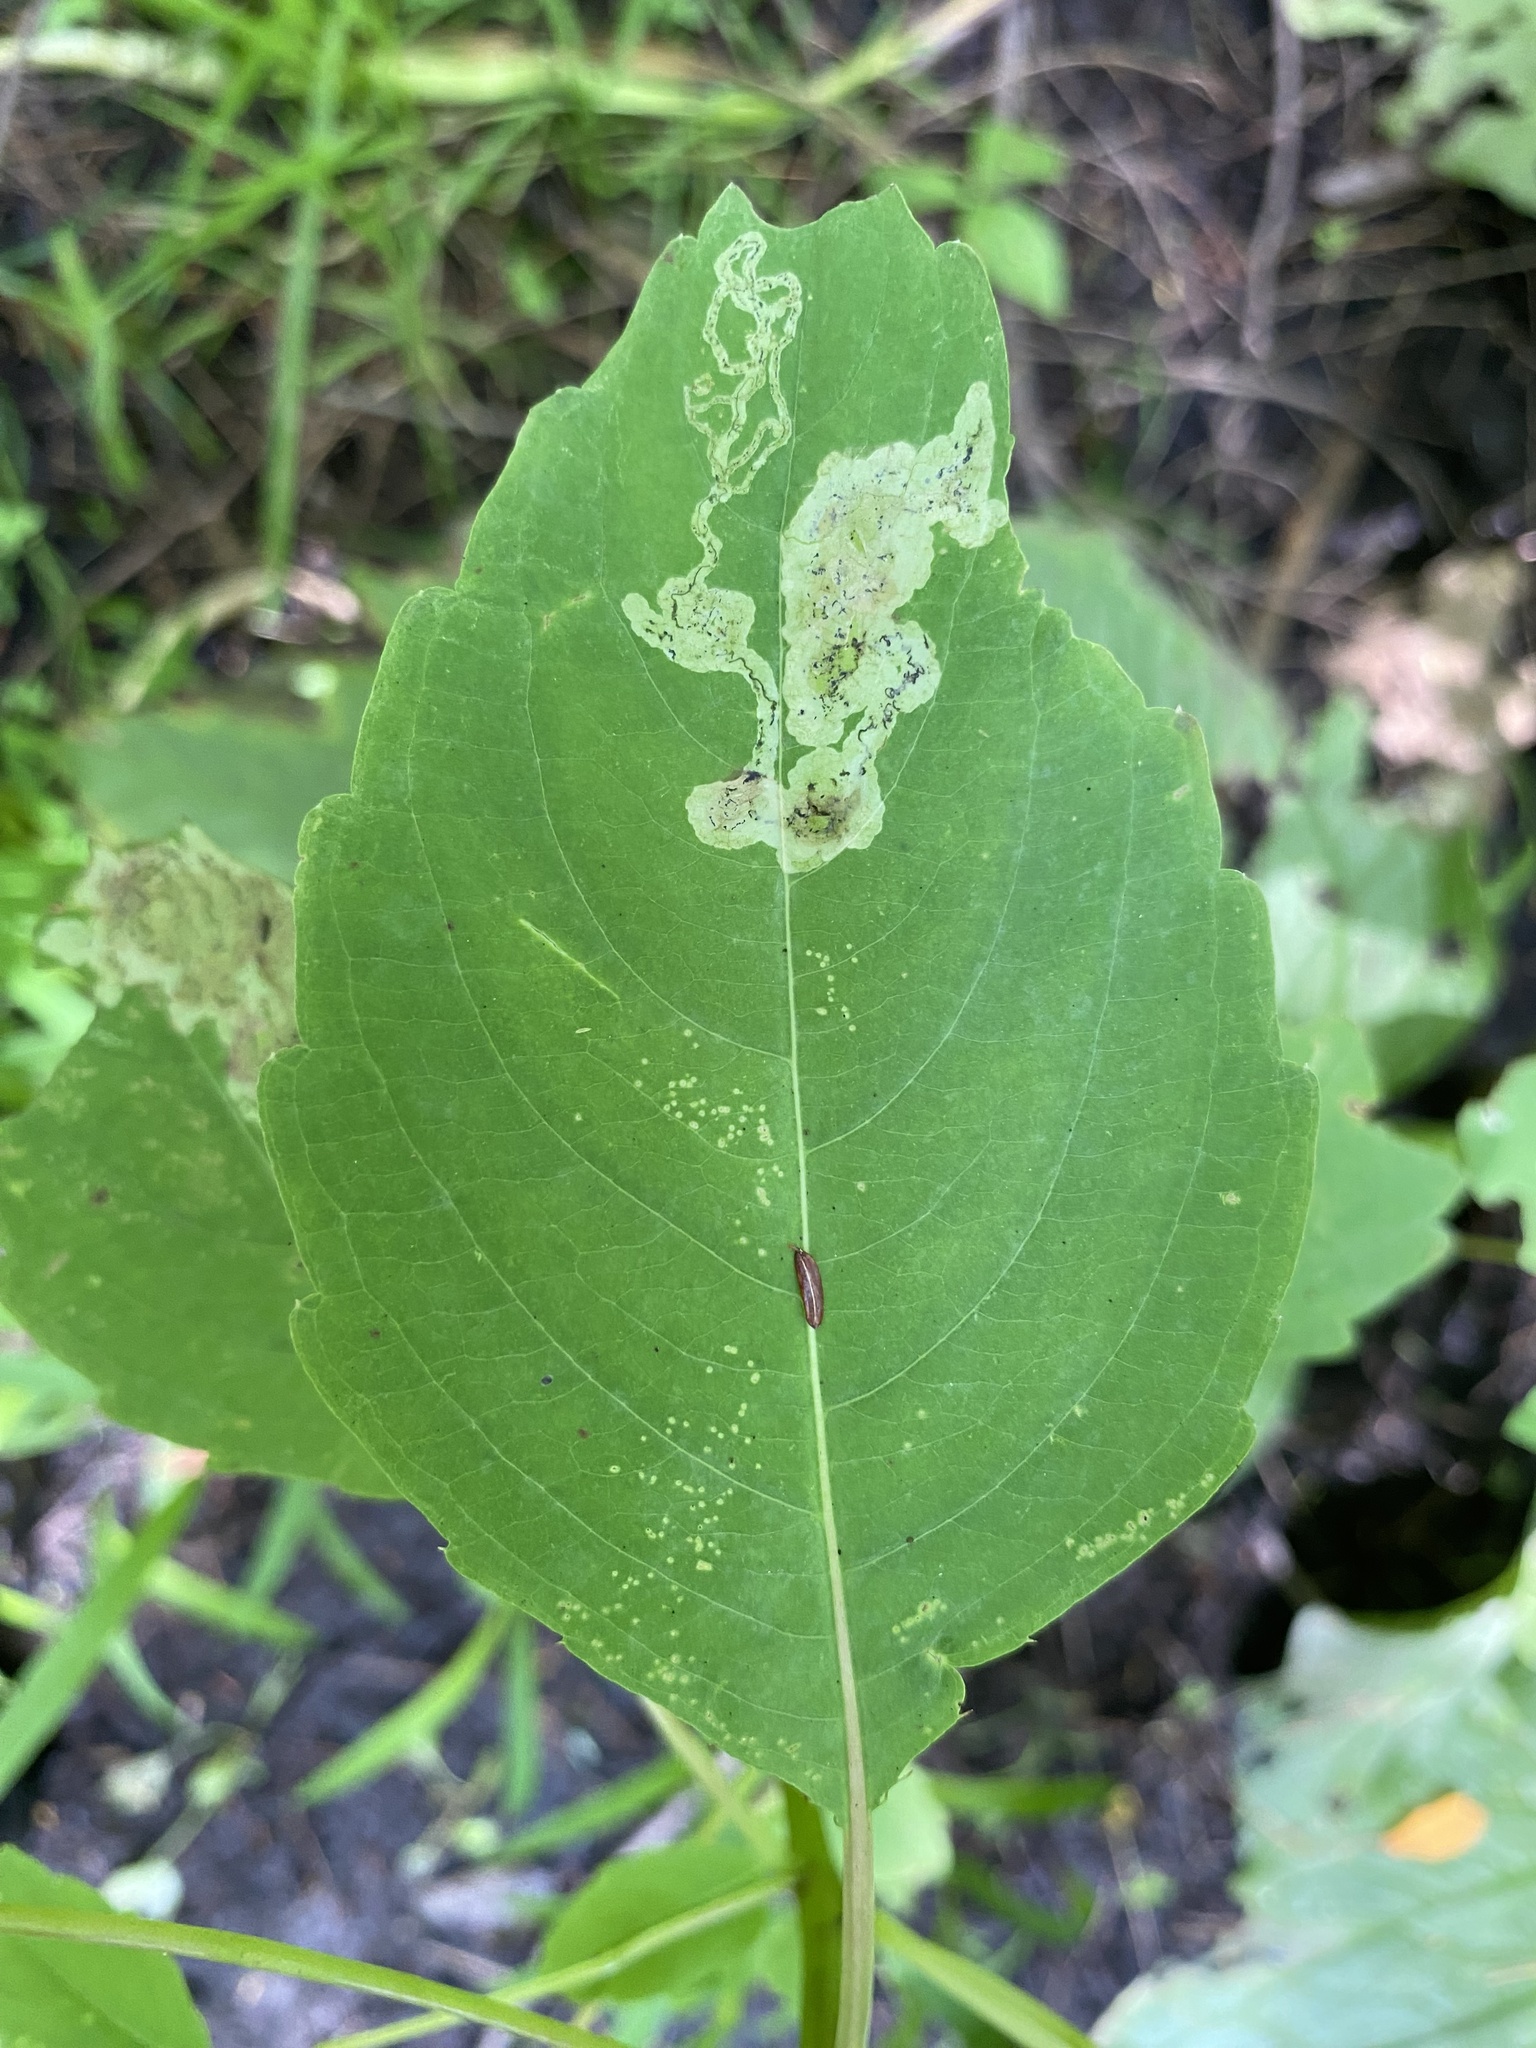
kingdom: Animalia
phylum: Arthropoda
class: Insecta
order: Diptera
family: Agromyzidae
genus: Phytoliriomyza
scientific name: Phytoliriomyza melampyga
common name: Jewelweed leaf-miner fly
